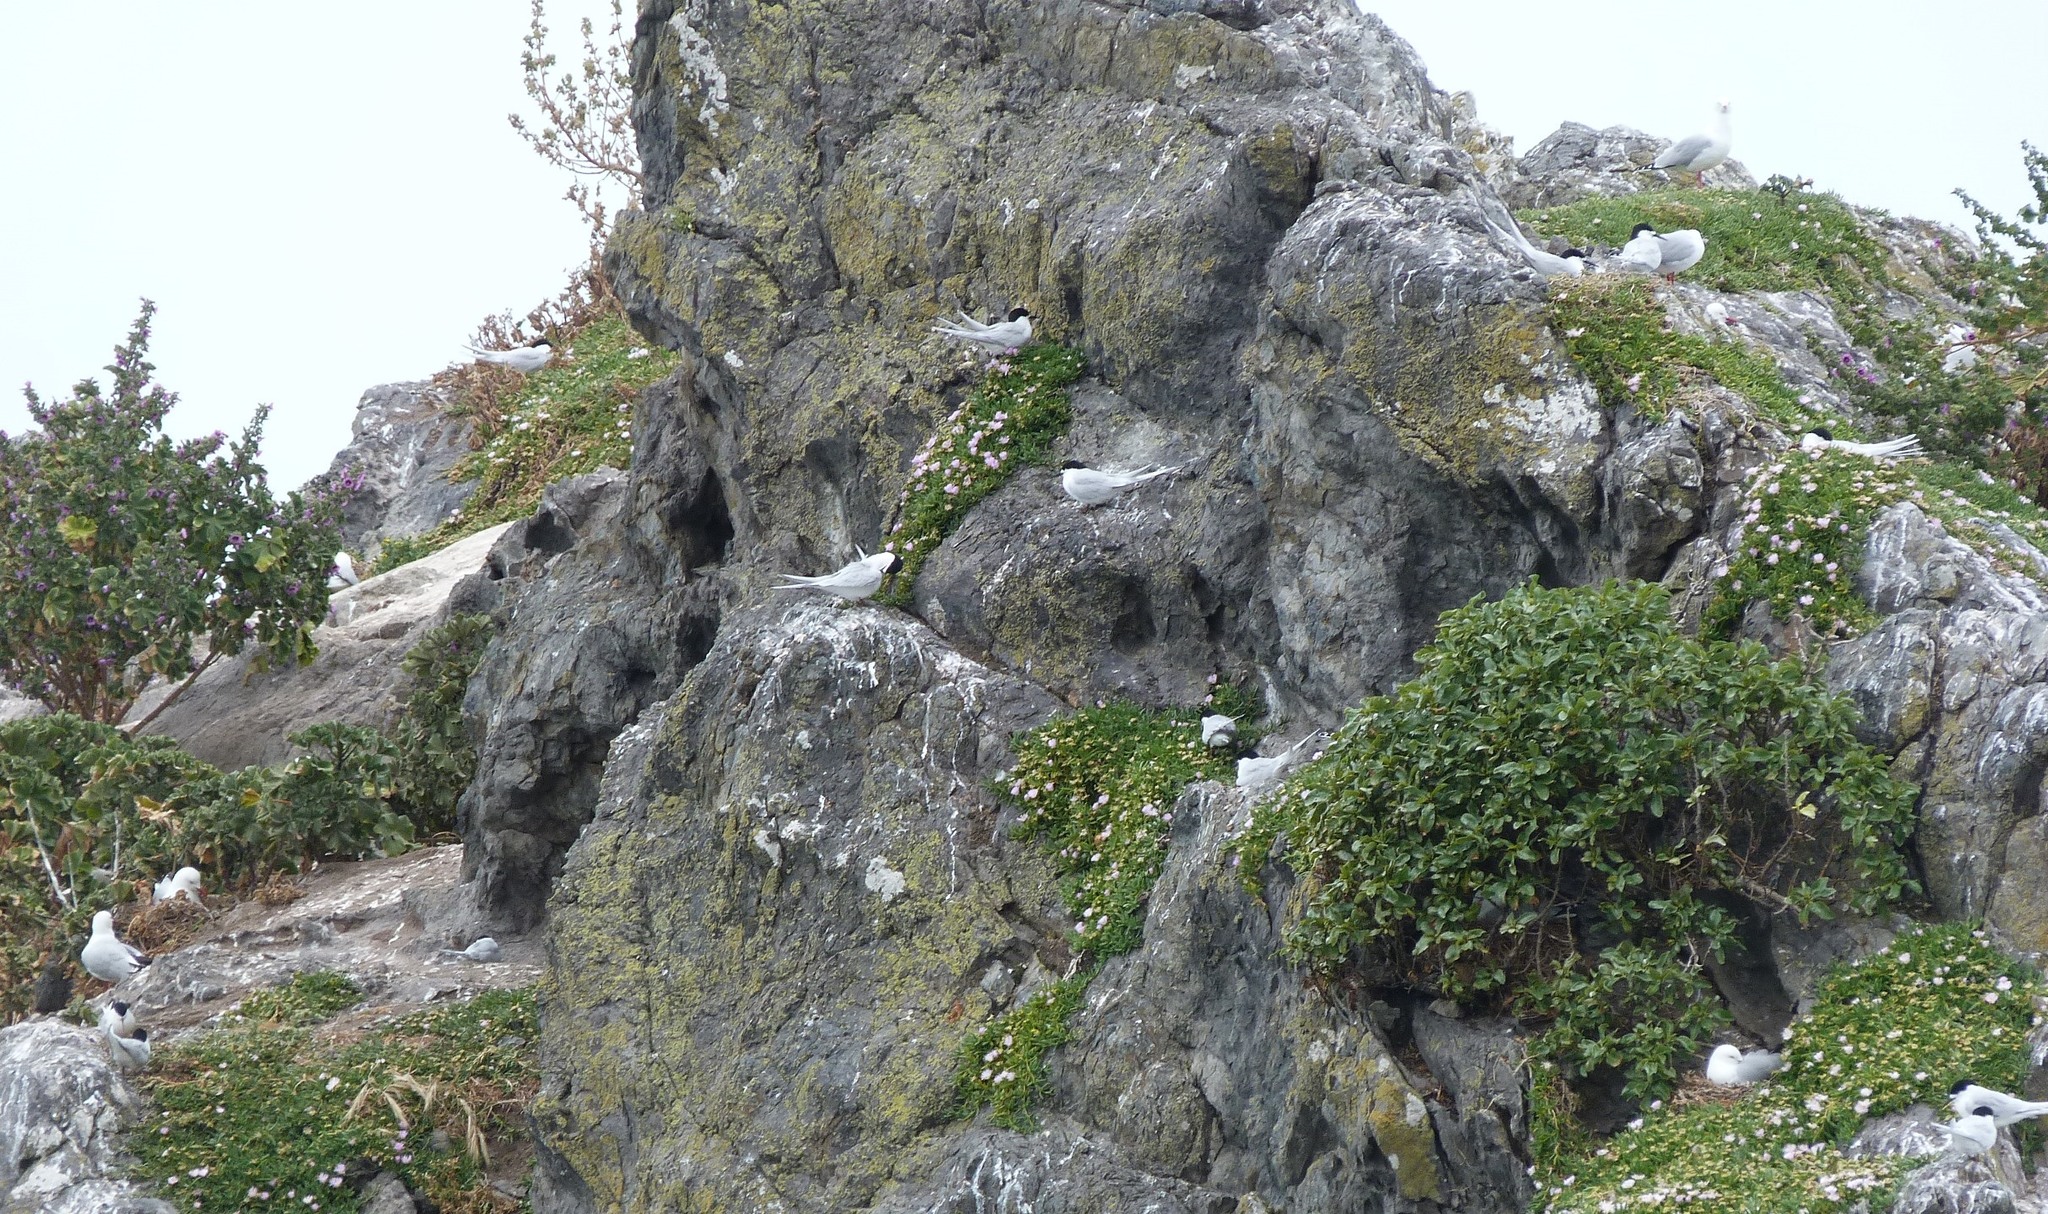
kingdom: Animalia
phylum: Chordata
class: Aves
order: Charadriiformes
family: Laridae
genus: Sterna
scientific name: Sterna striata
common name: White-fronted tern
